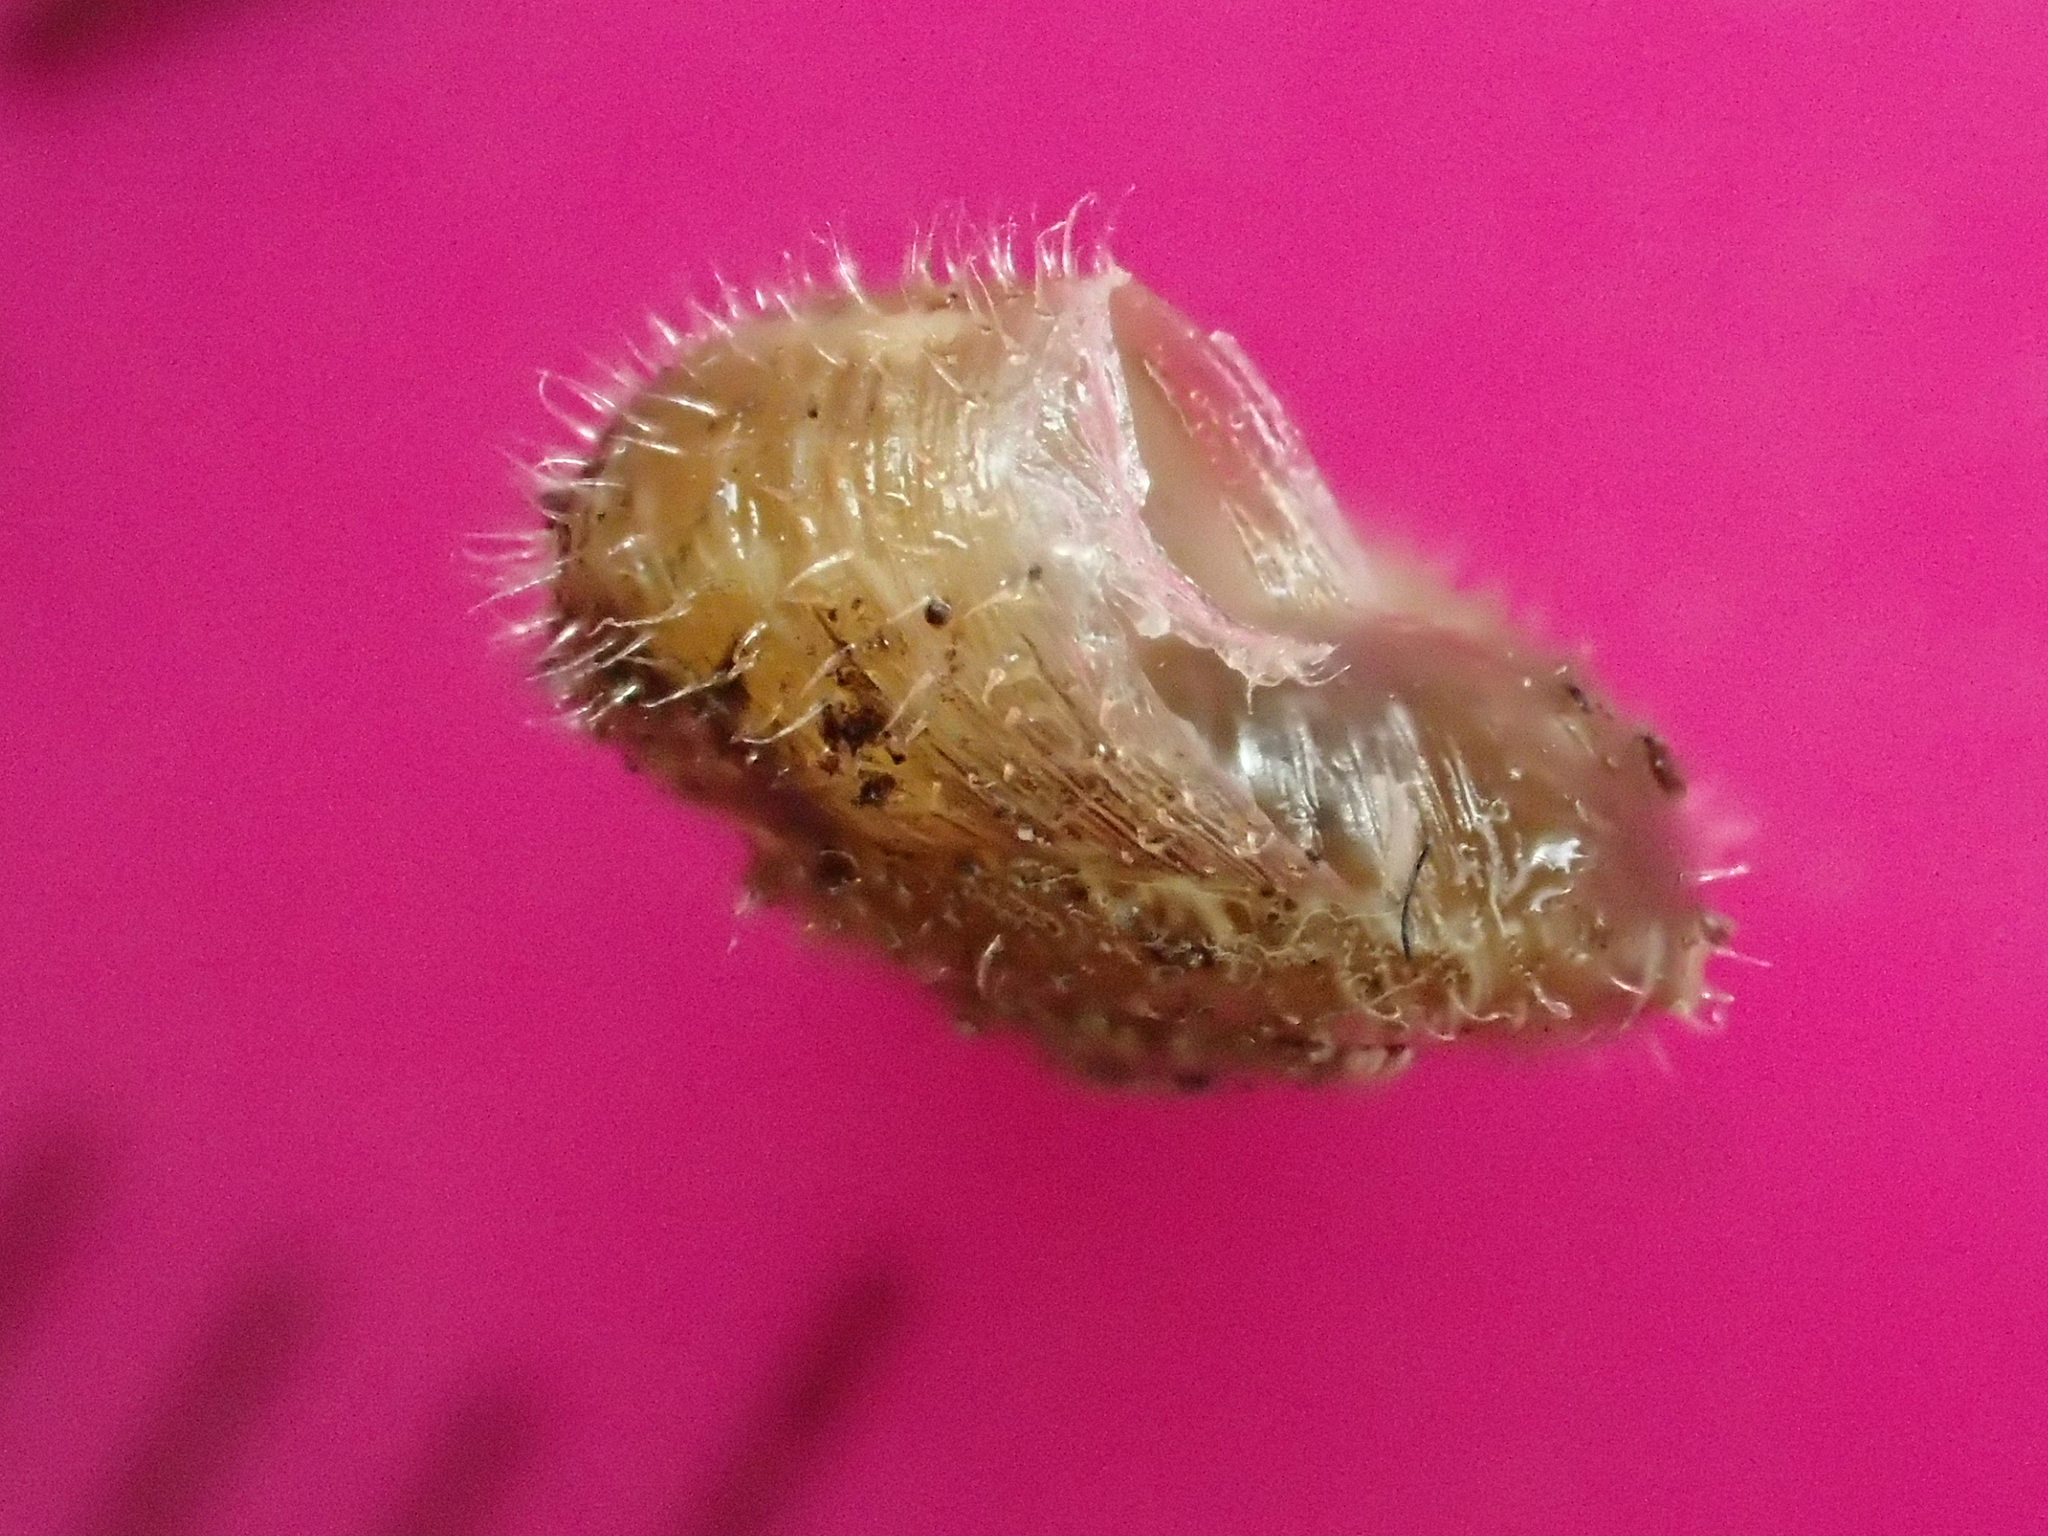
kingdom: Animalia
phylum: Mollusca
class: Gastropoda
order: Stylommatophora
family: Geomitridae
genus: Xerotricha
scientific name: Xerotricha conspurcata
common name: Snail
